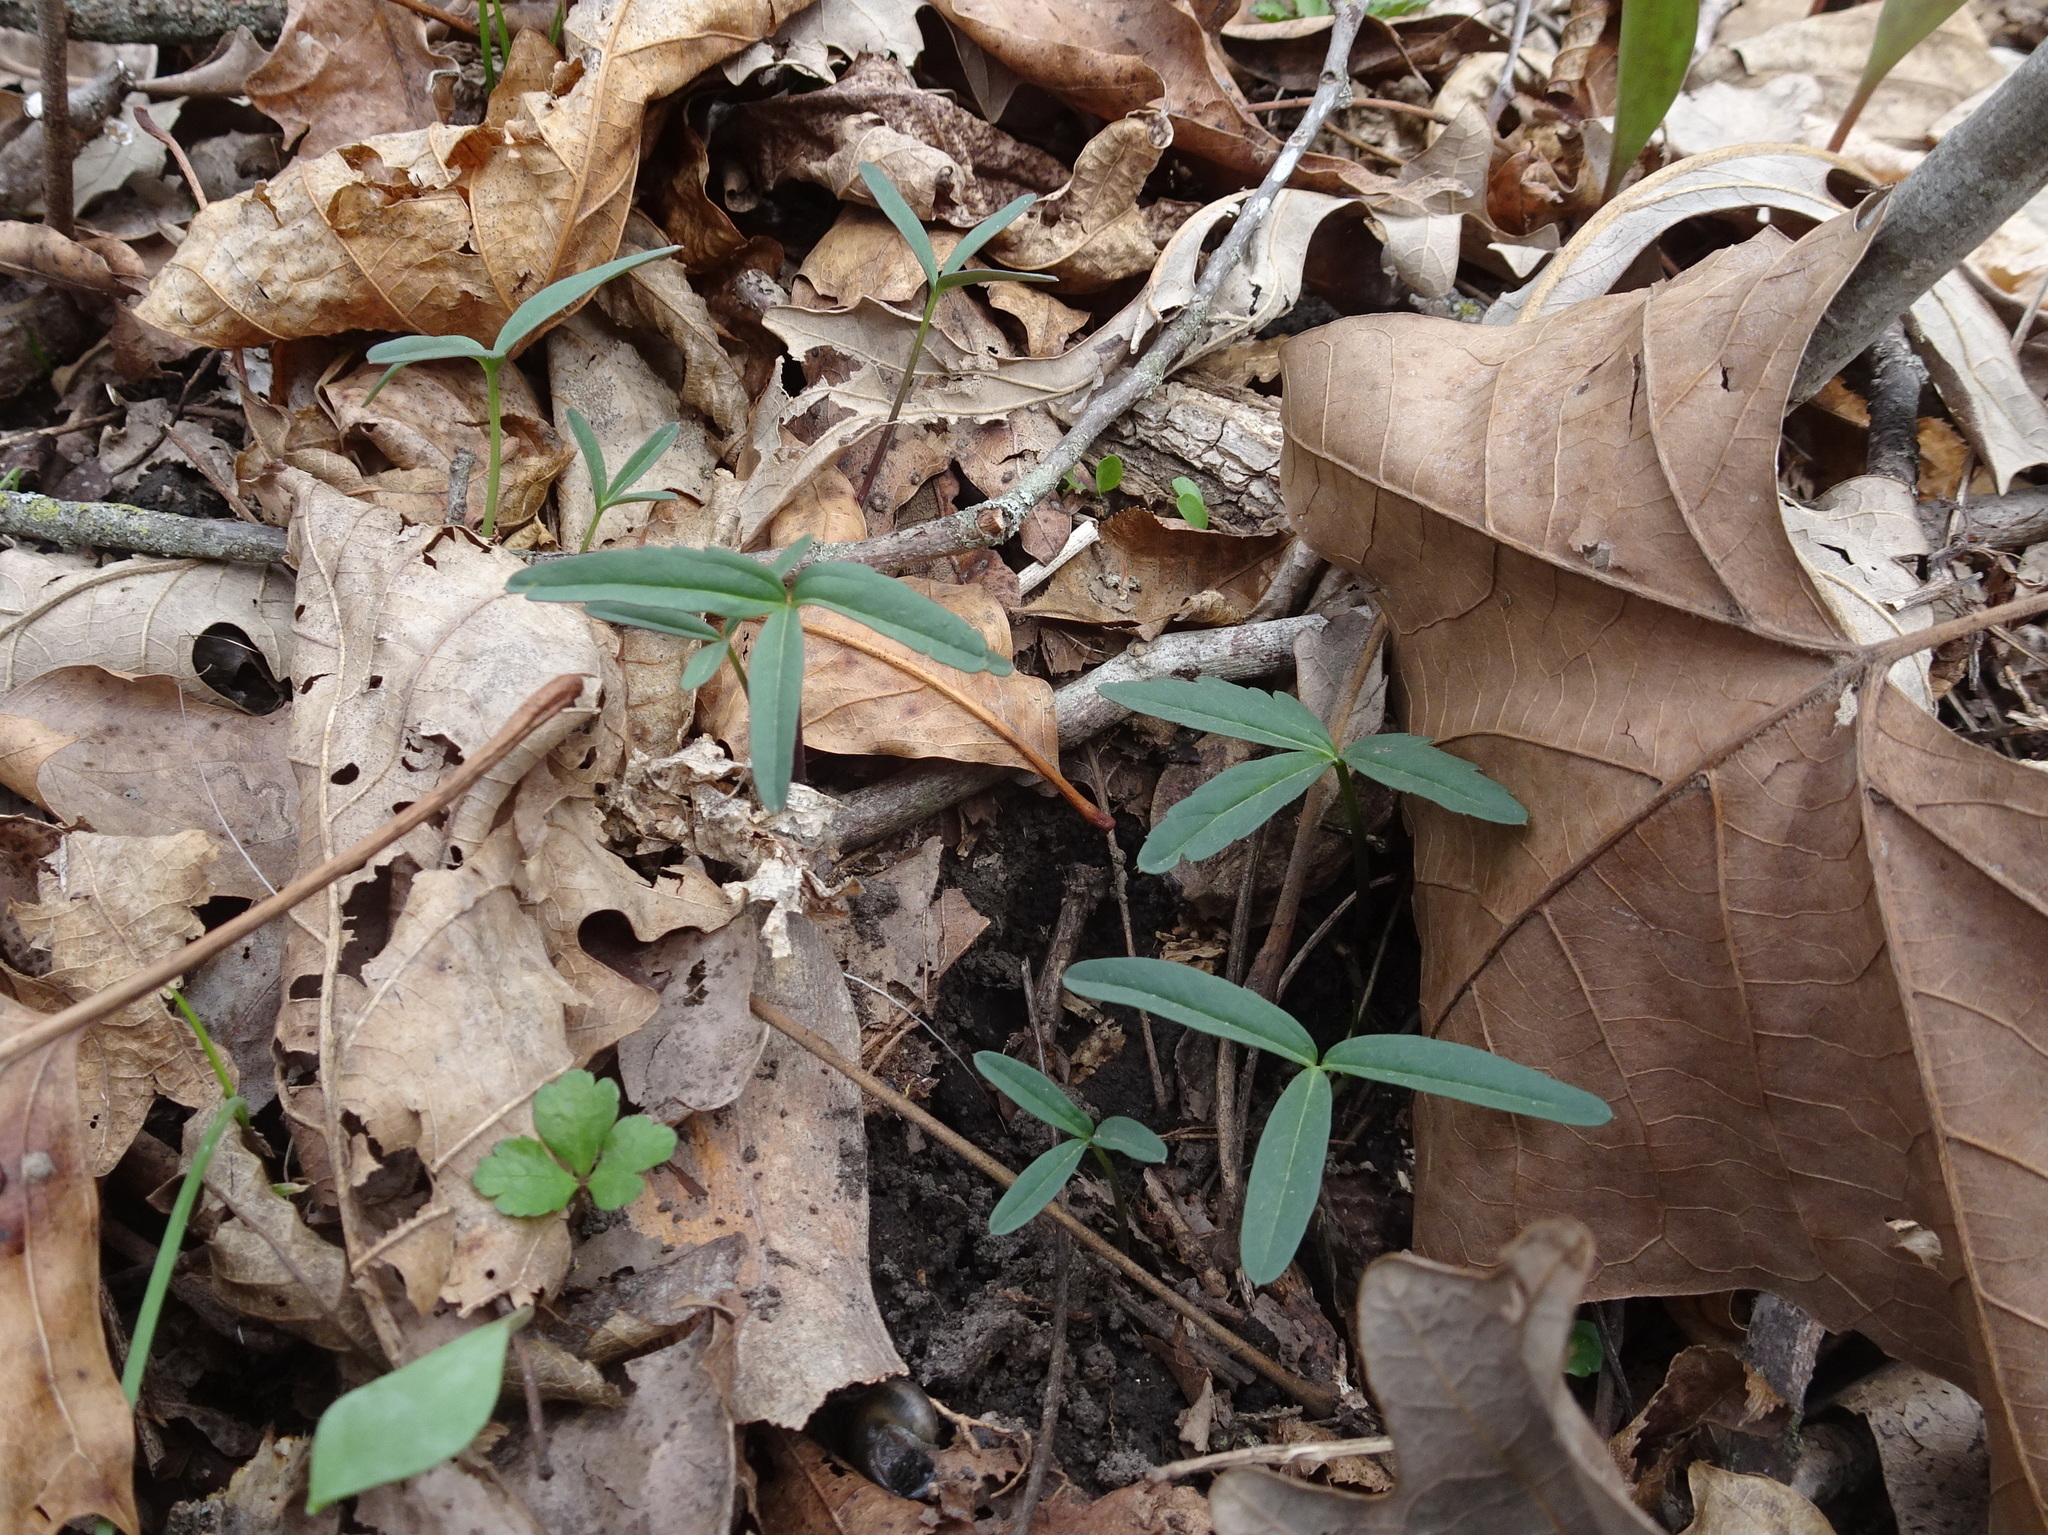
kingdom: Plantae
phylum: Tracheophyta
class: Magnoliopsida
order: Brassicales
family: Brassicaceae
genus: Cardamine
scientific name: Cardamine concatenata
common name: Cut-leaf toothcup
